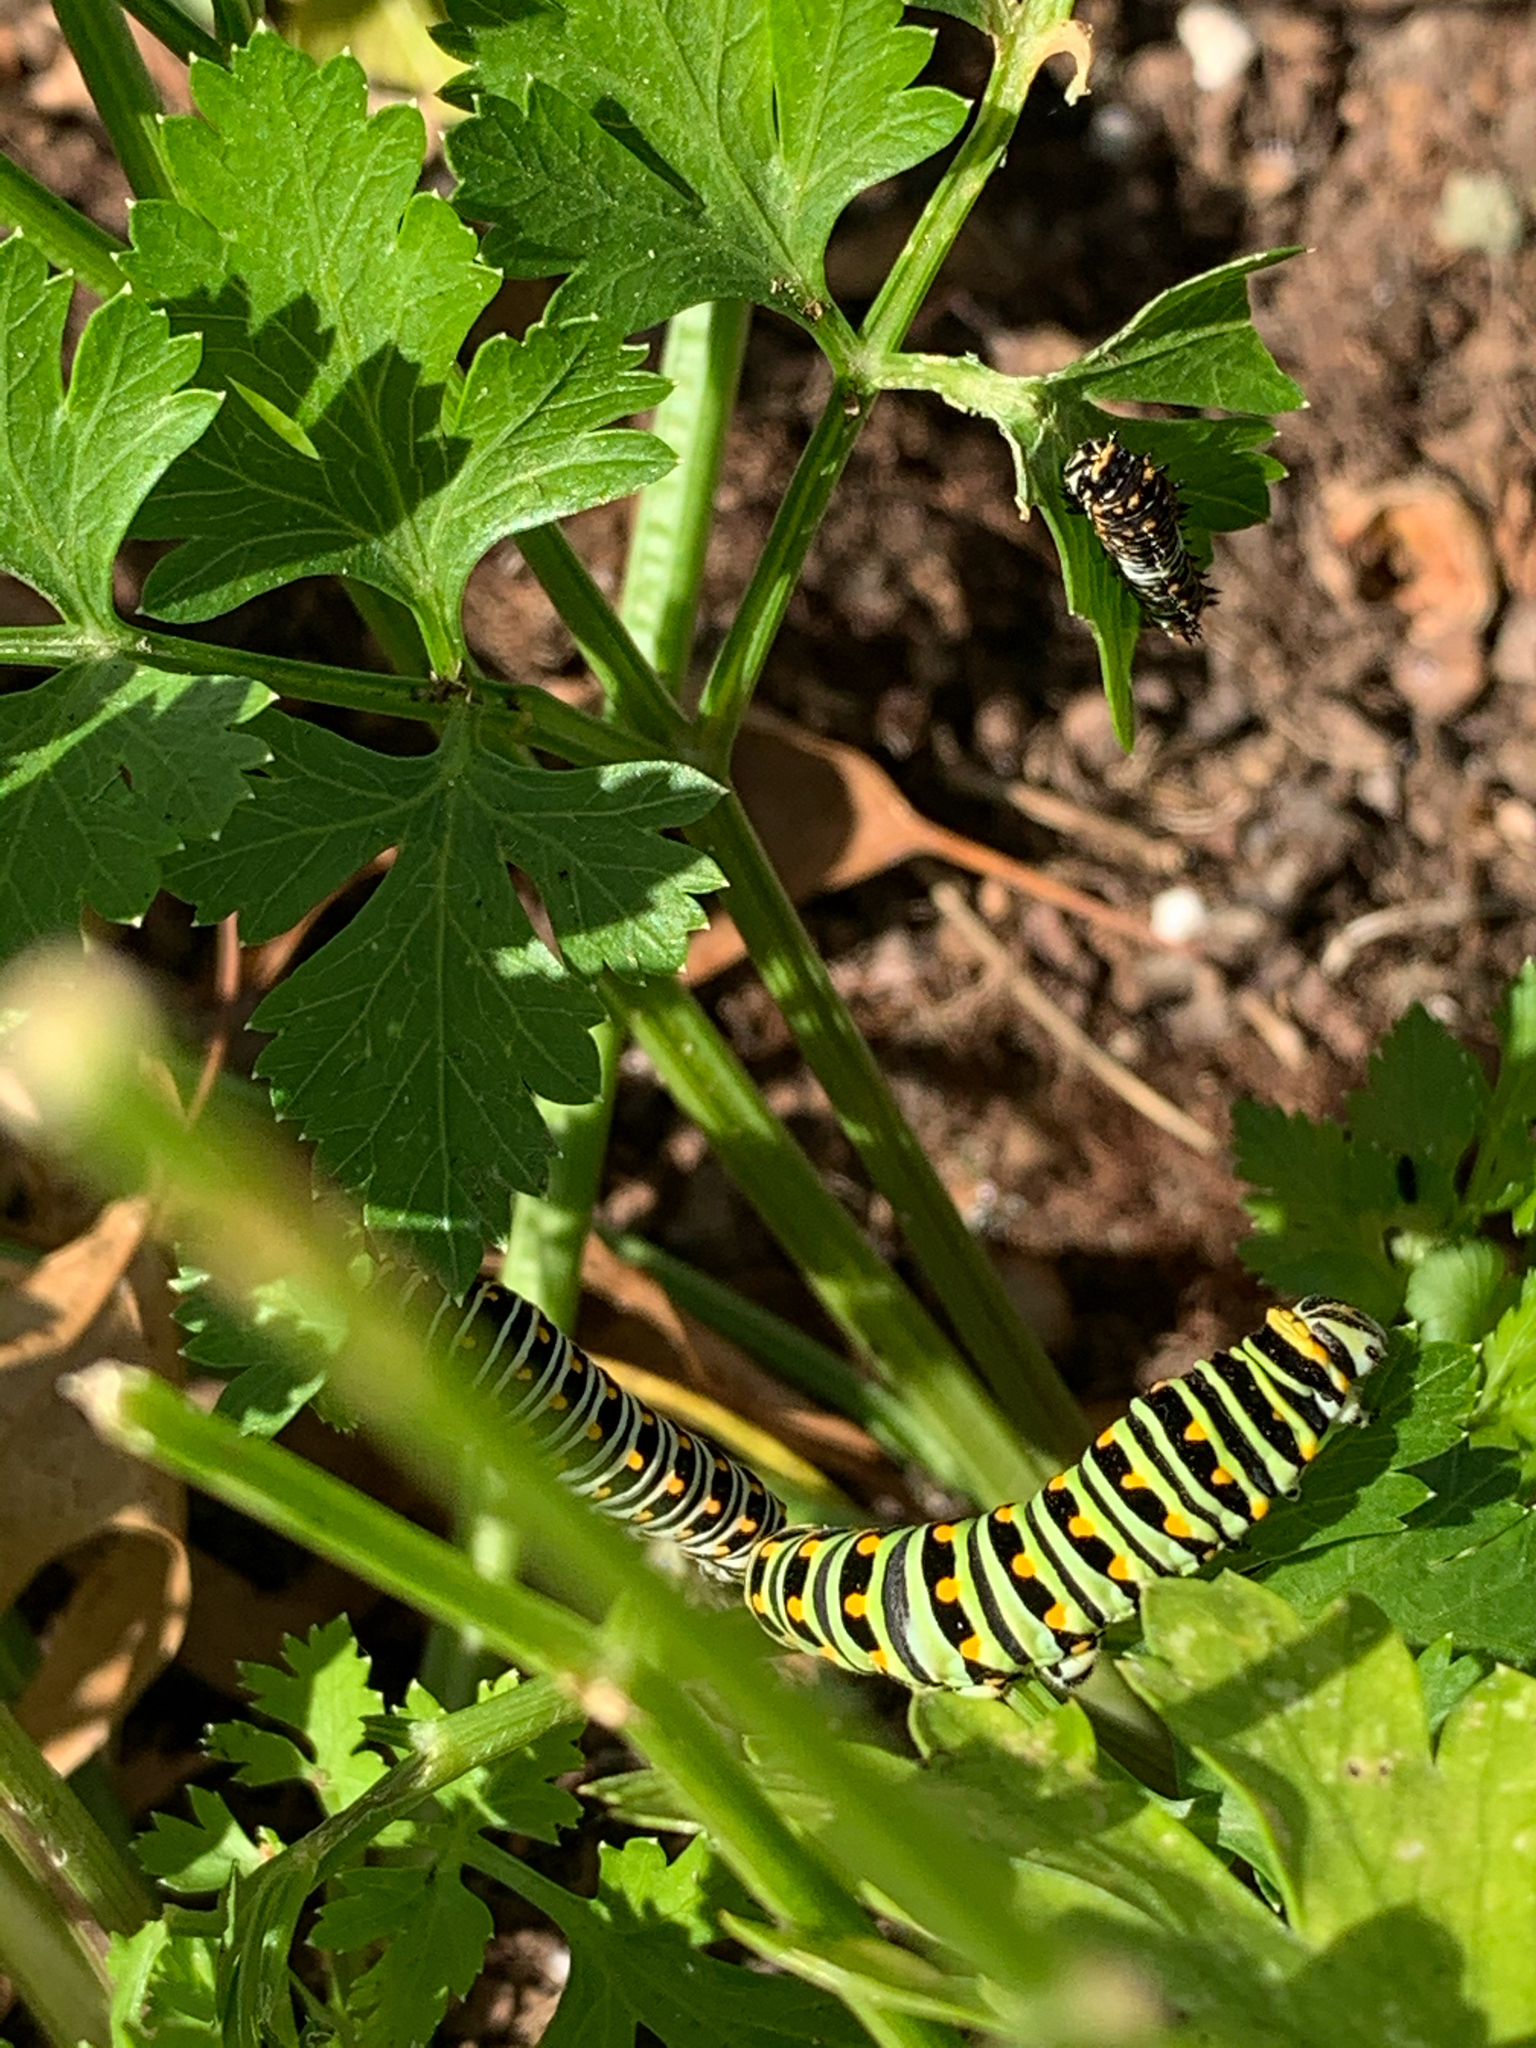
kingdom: Animalia
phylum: Arthropoda
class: Insecta
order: Lepidoptera
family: Papilionidae
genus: Papilio
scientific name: Papilio polyxenes
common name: Black swallowtail
